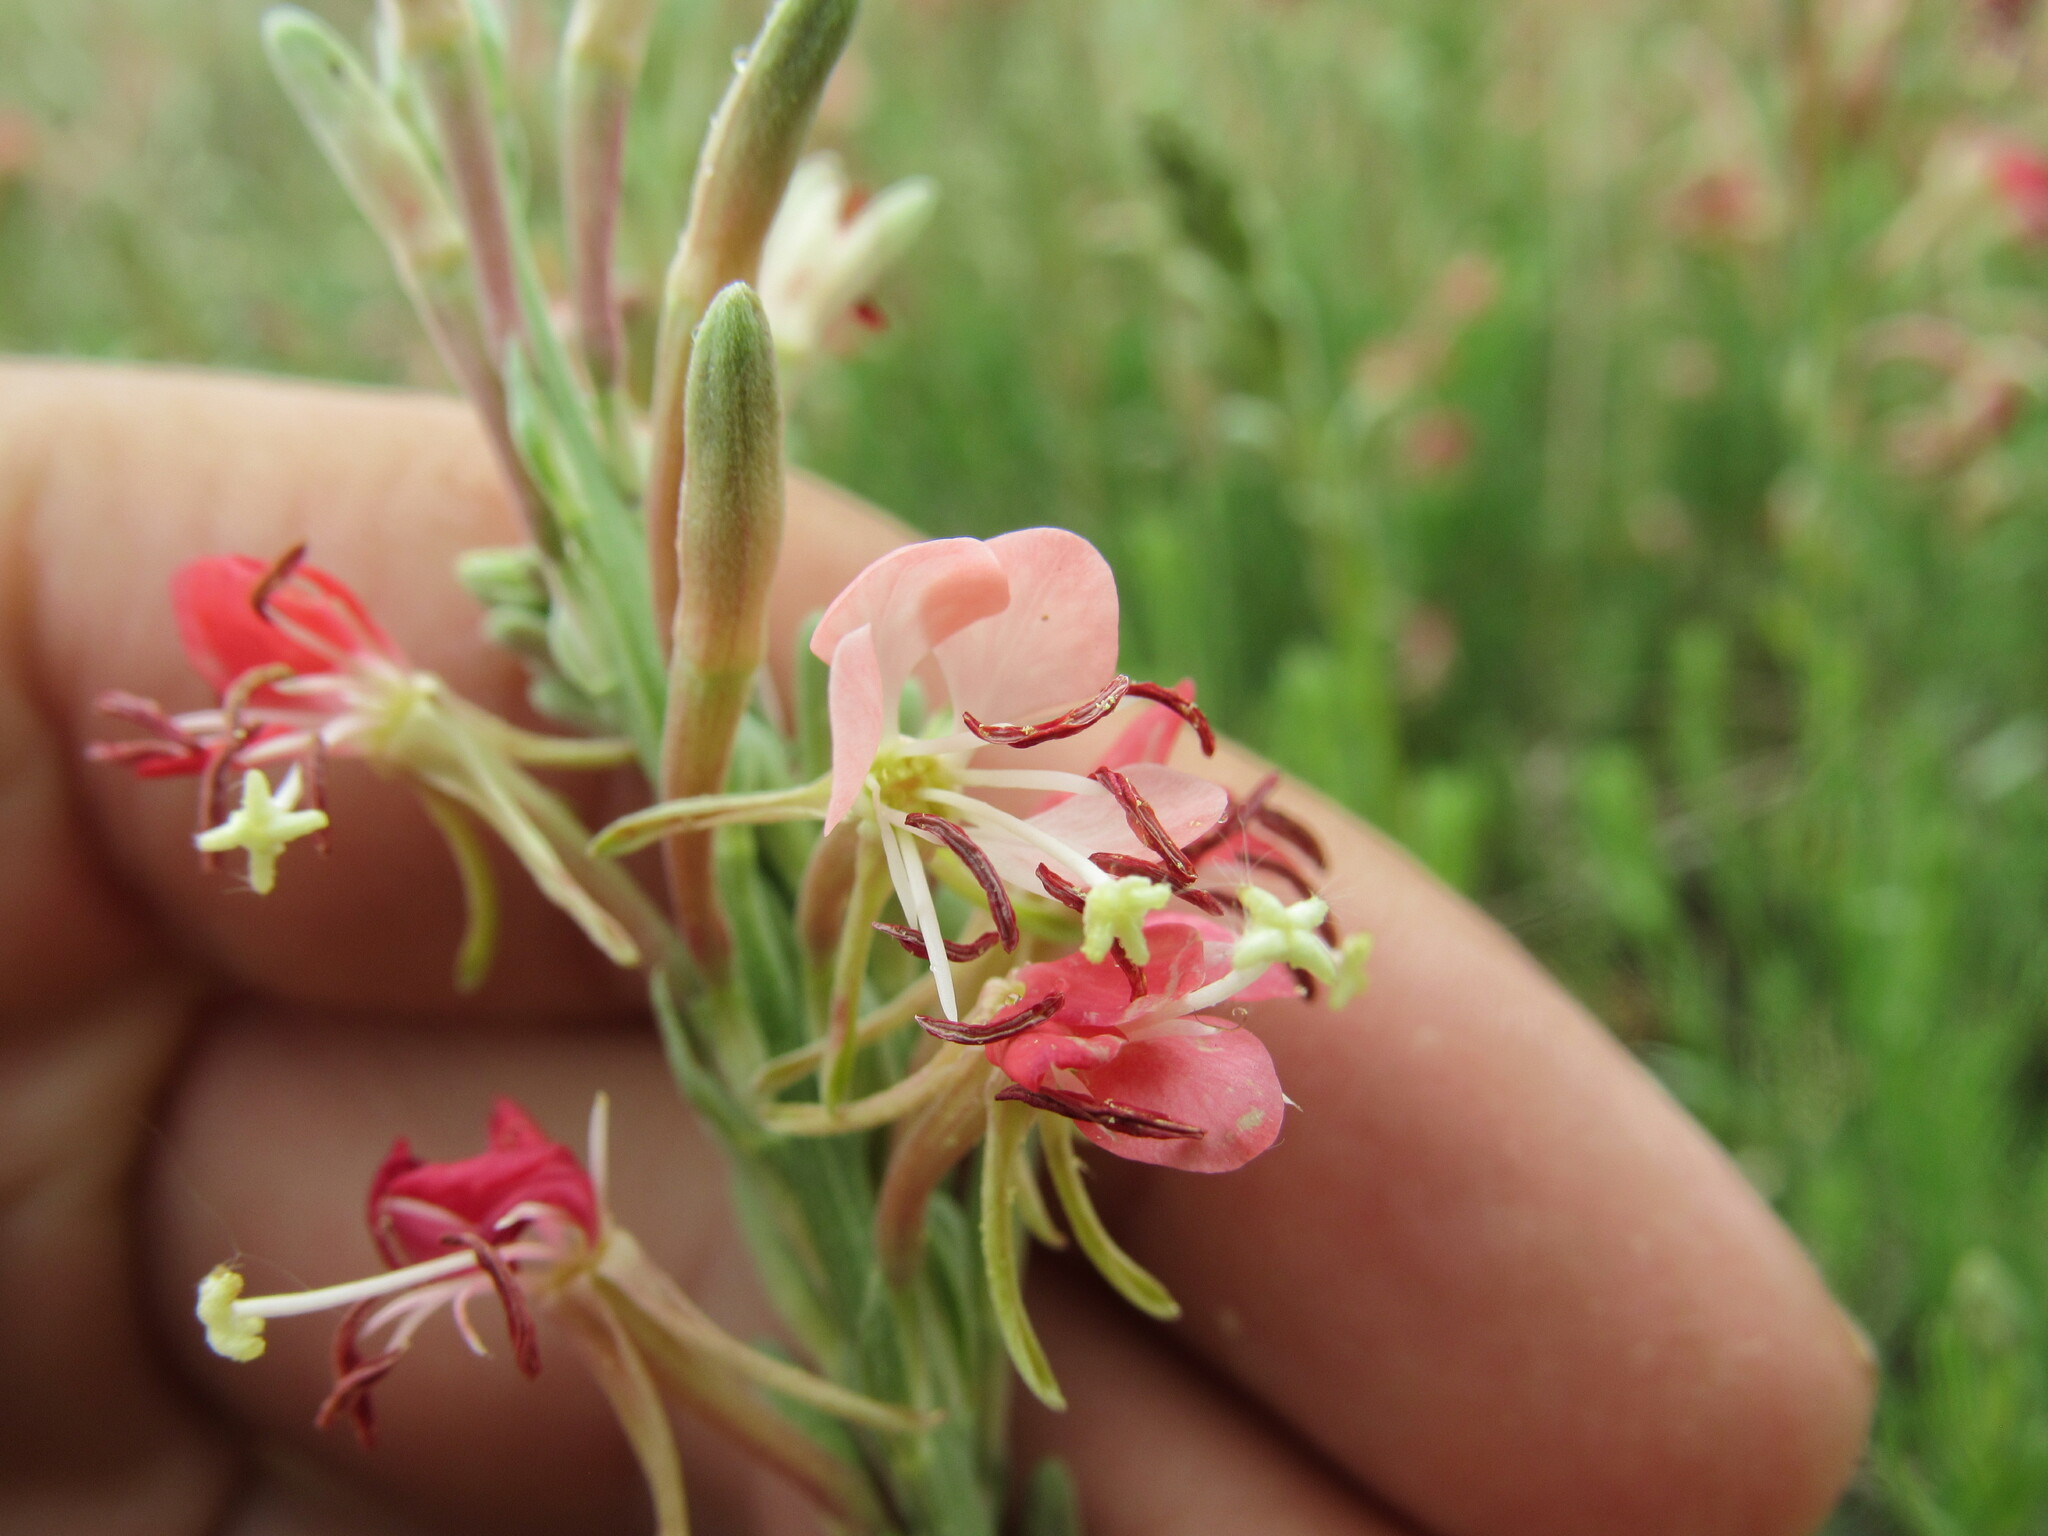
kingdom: Plantae
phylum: Tracheophyta
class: Magnoliopsida
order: Myrtales
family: Onagraceae
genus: Oenothera
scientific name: Oenothera suffrutescens
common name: Scarlet beeblossom
